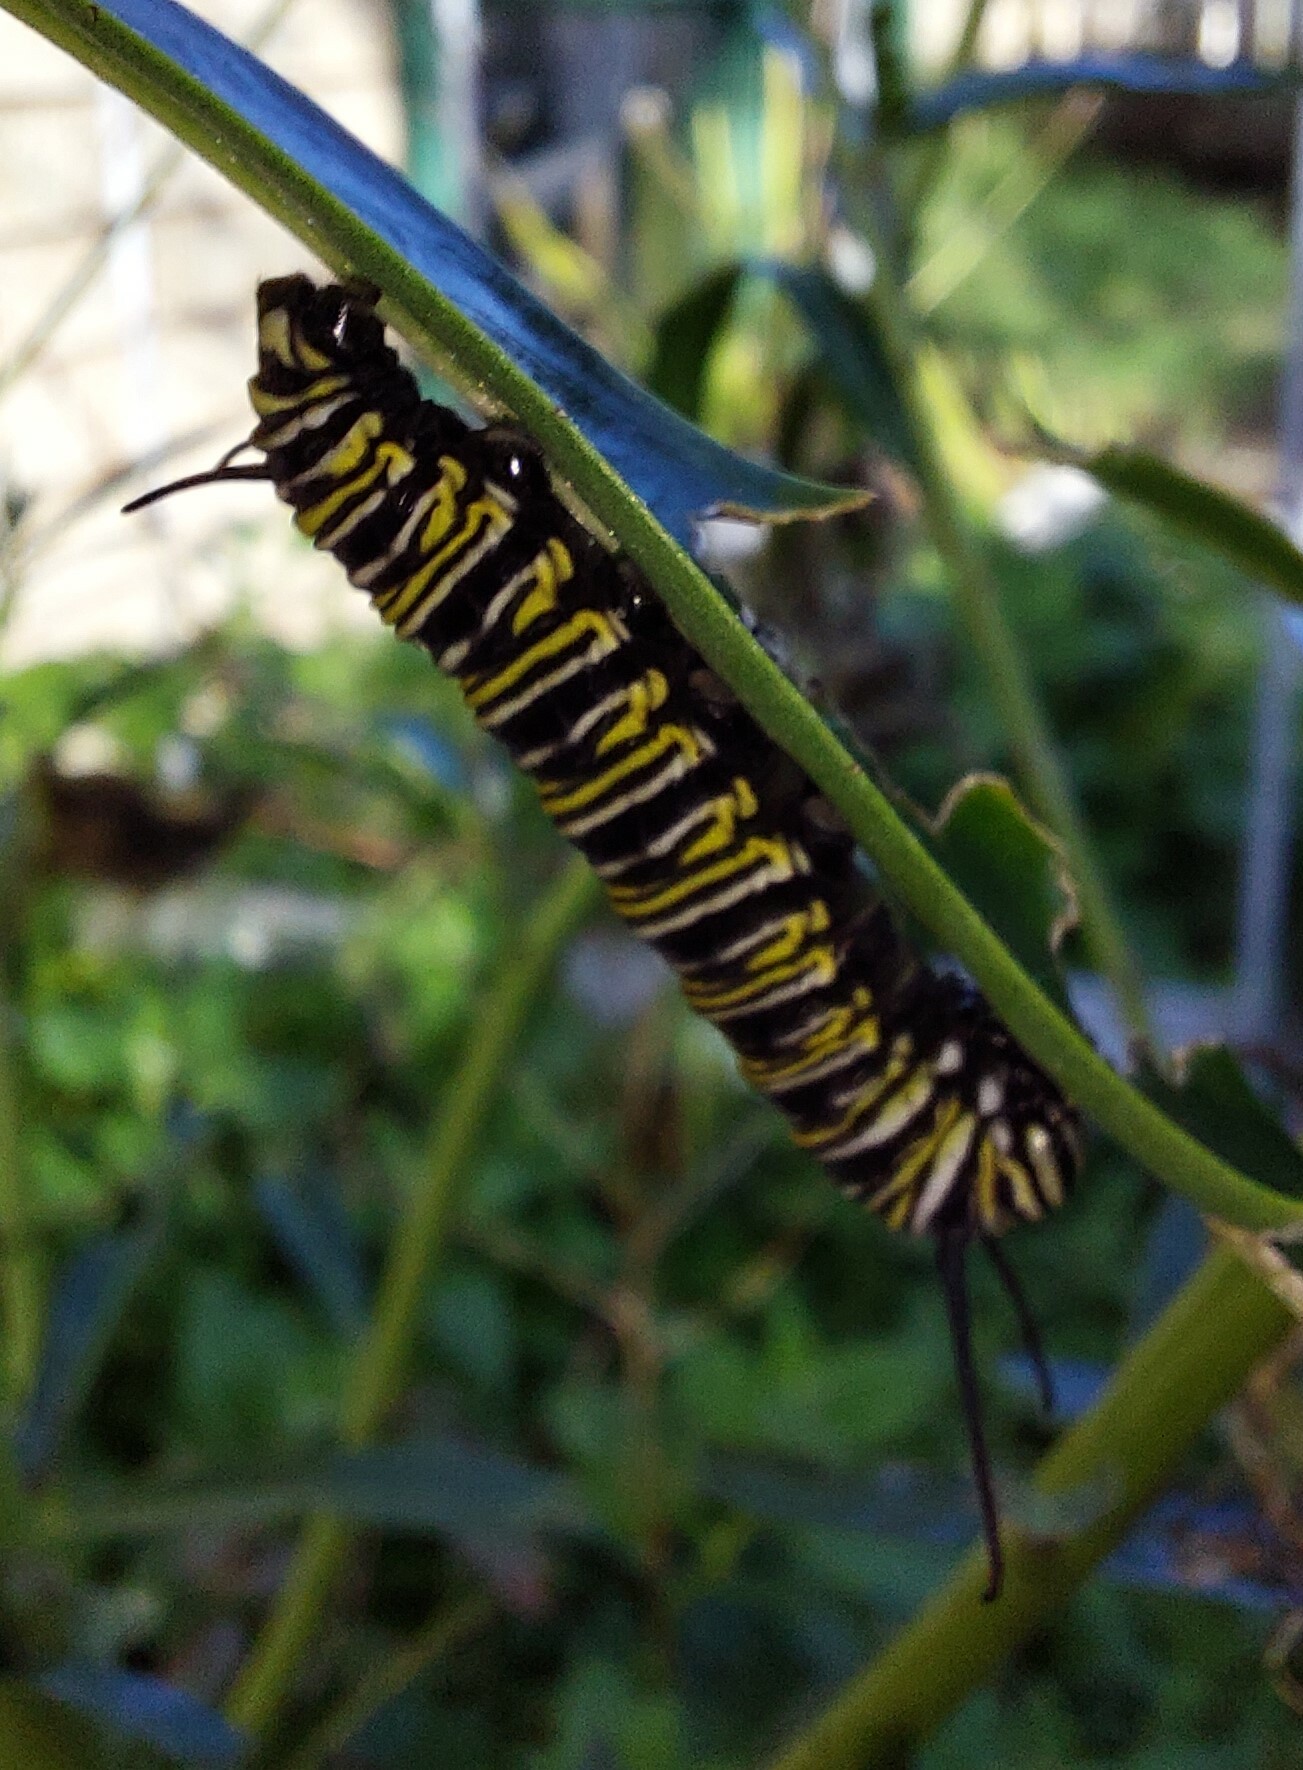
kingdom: Animalia
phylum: Arthropoda
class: Insecta
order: Lepidoptera
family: Nymphalidae
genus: Danaus
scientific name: Danaus plexippus
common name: Monarch
